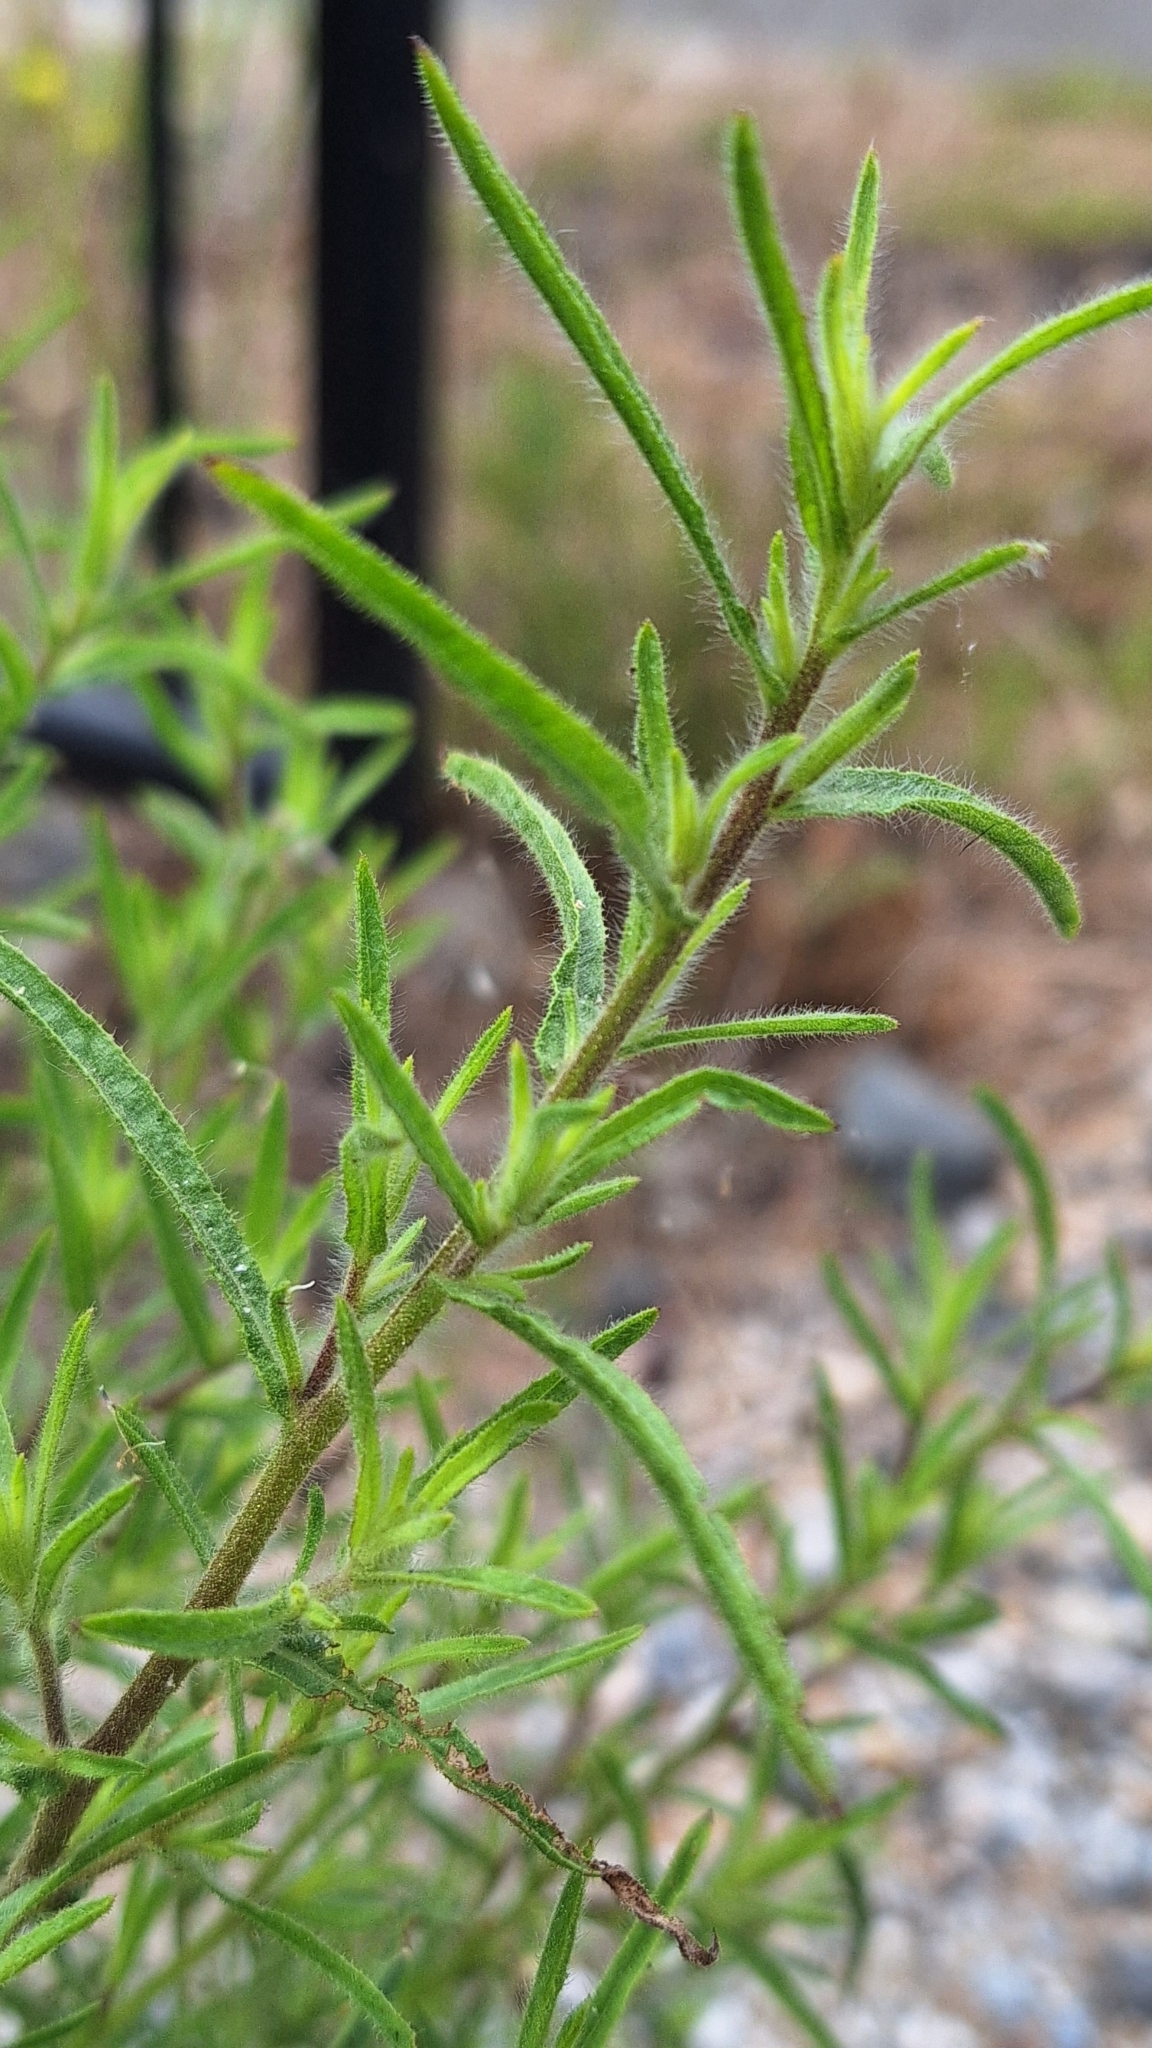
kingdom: Plantae
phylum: Tracheophyta
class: Magnoliopsida
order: Asterales
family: Asteraceae
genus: Dittrichia
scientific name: Dittrichia graveolens
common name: Stinking fleabane
